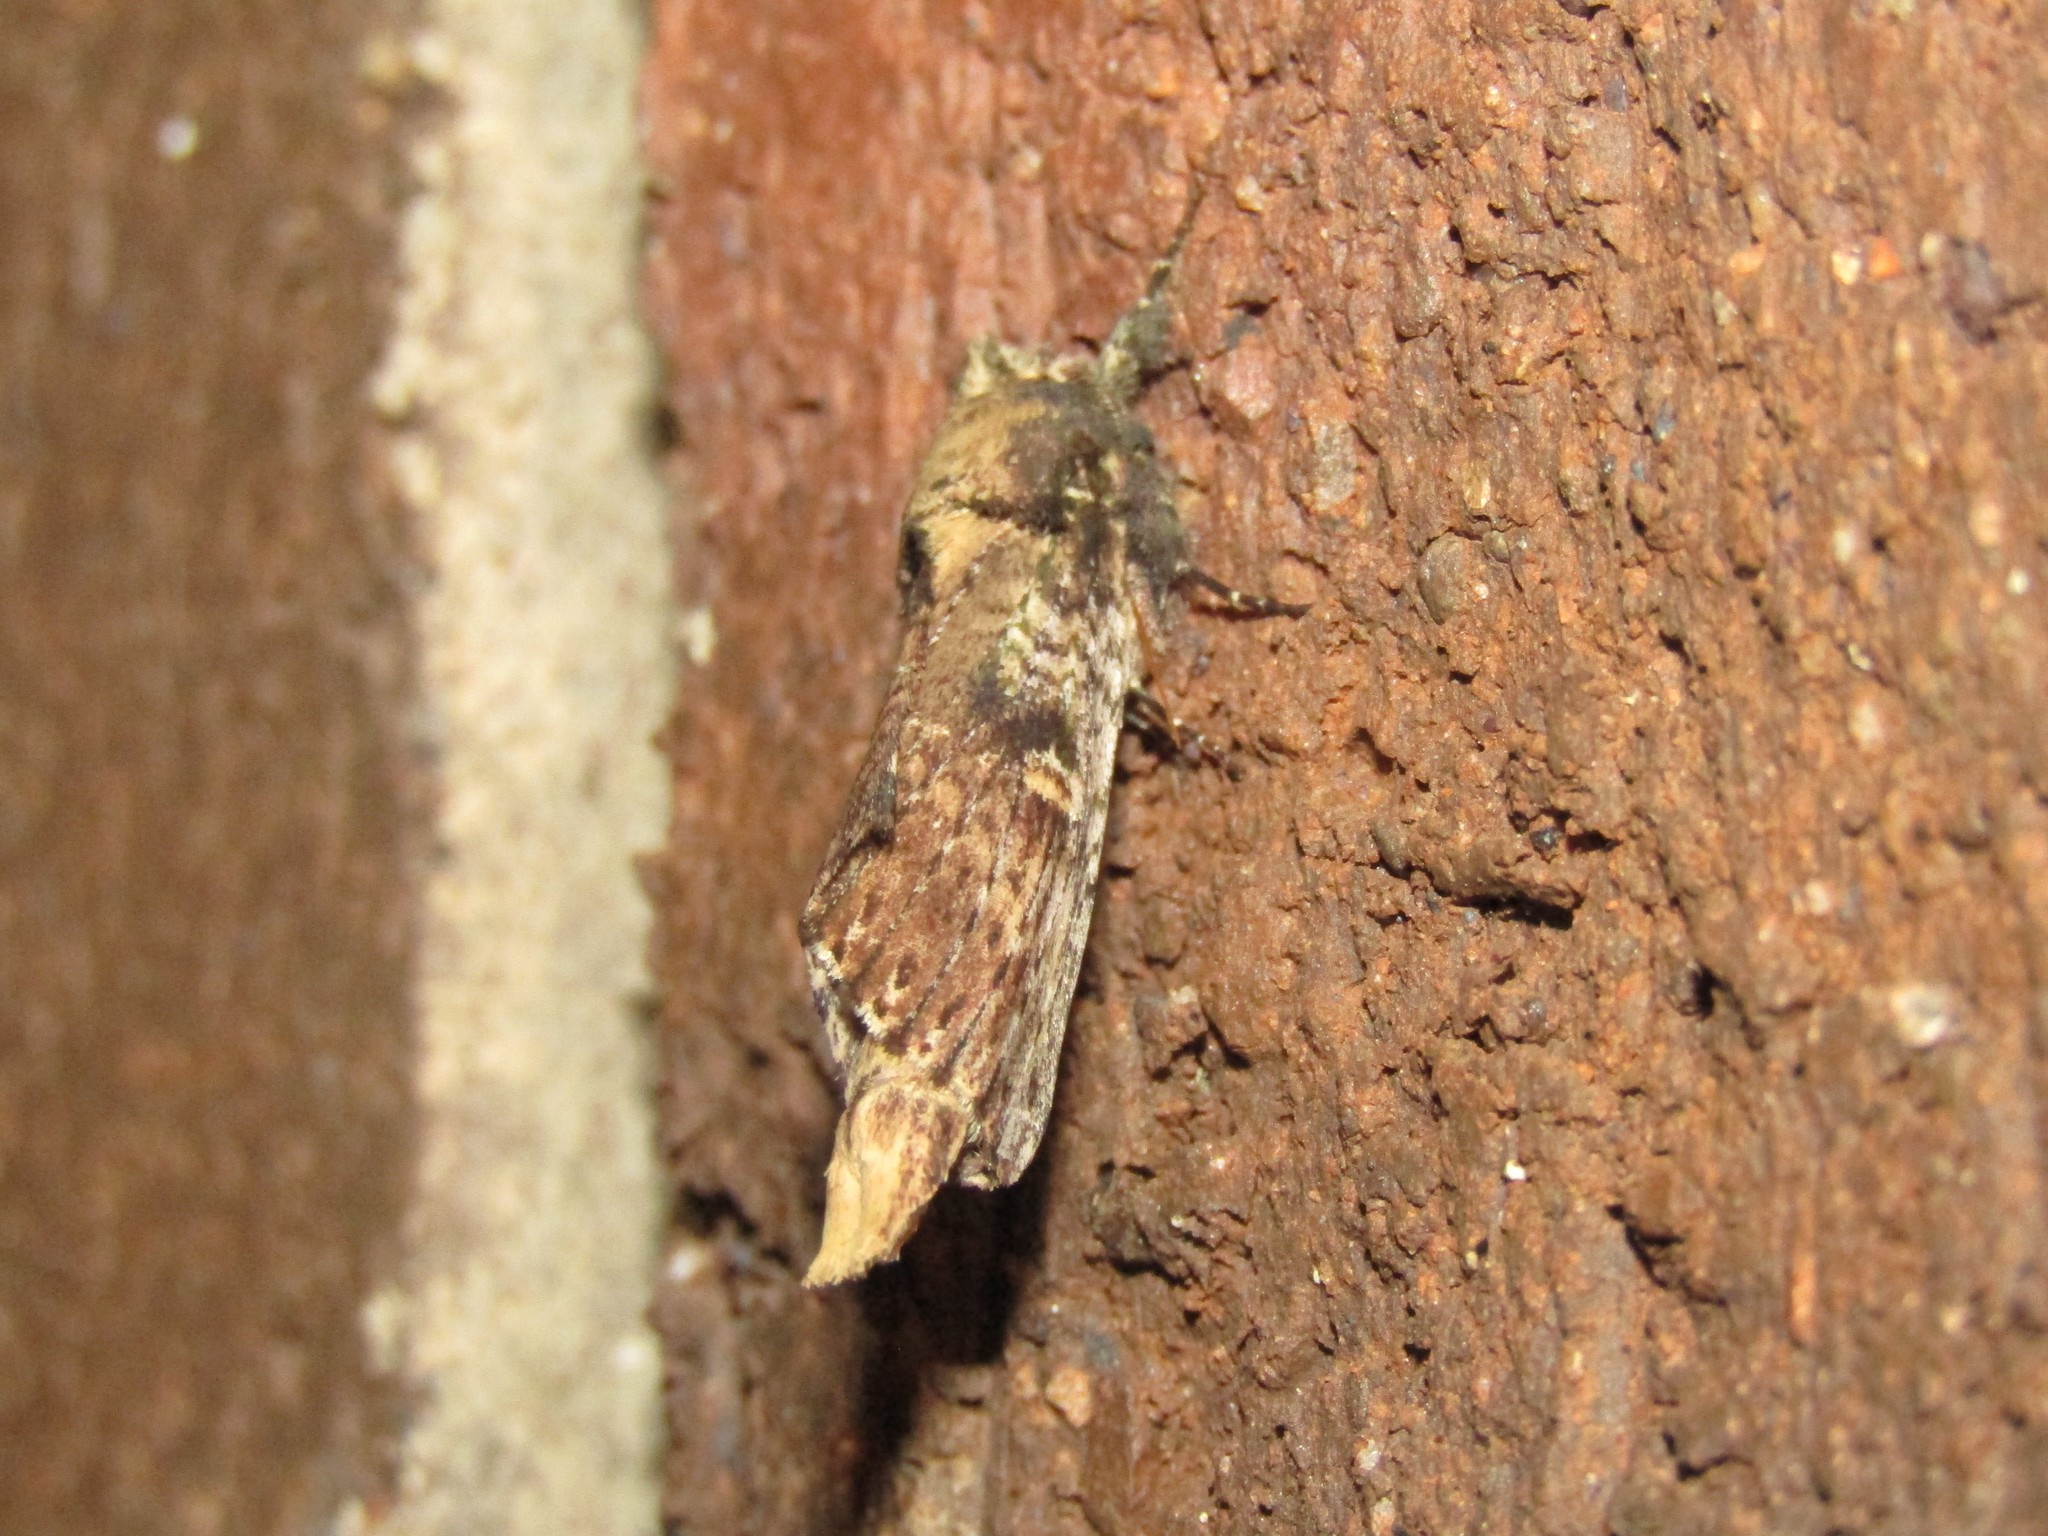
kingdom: Animalia
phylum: Arthropoda
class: Insecta
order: Lepidoptera
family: Notodontidae
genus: Schizura
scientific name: Schizura ipomaeae
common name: Morning-glory prominent
